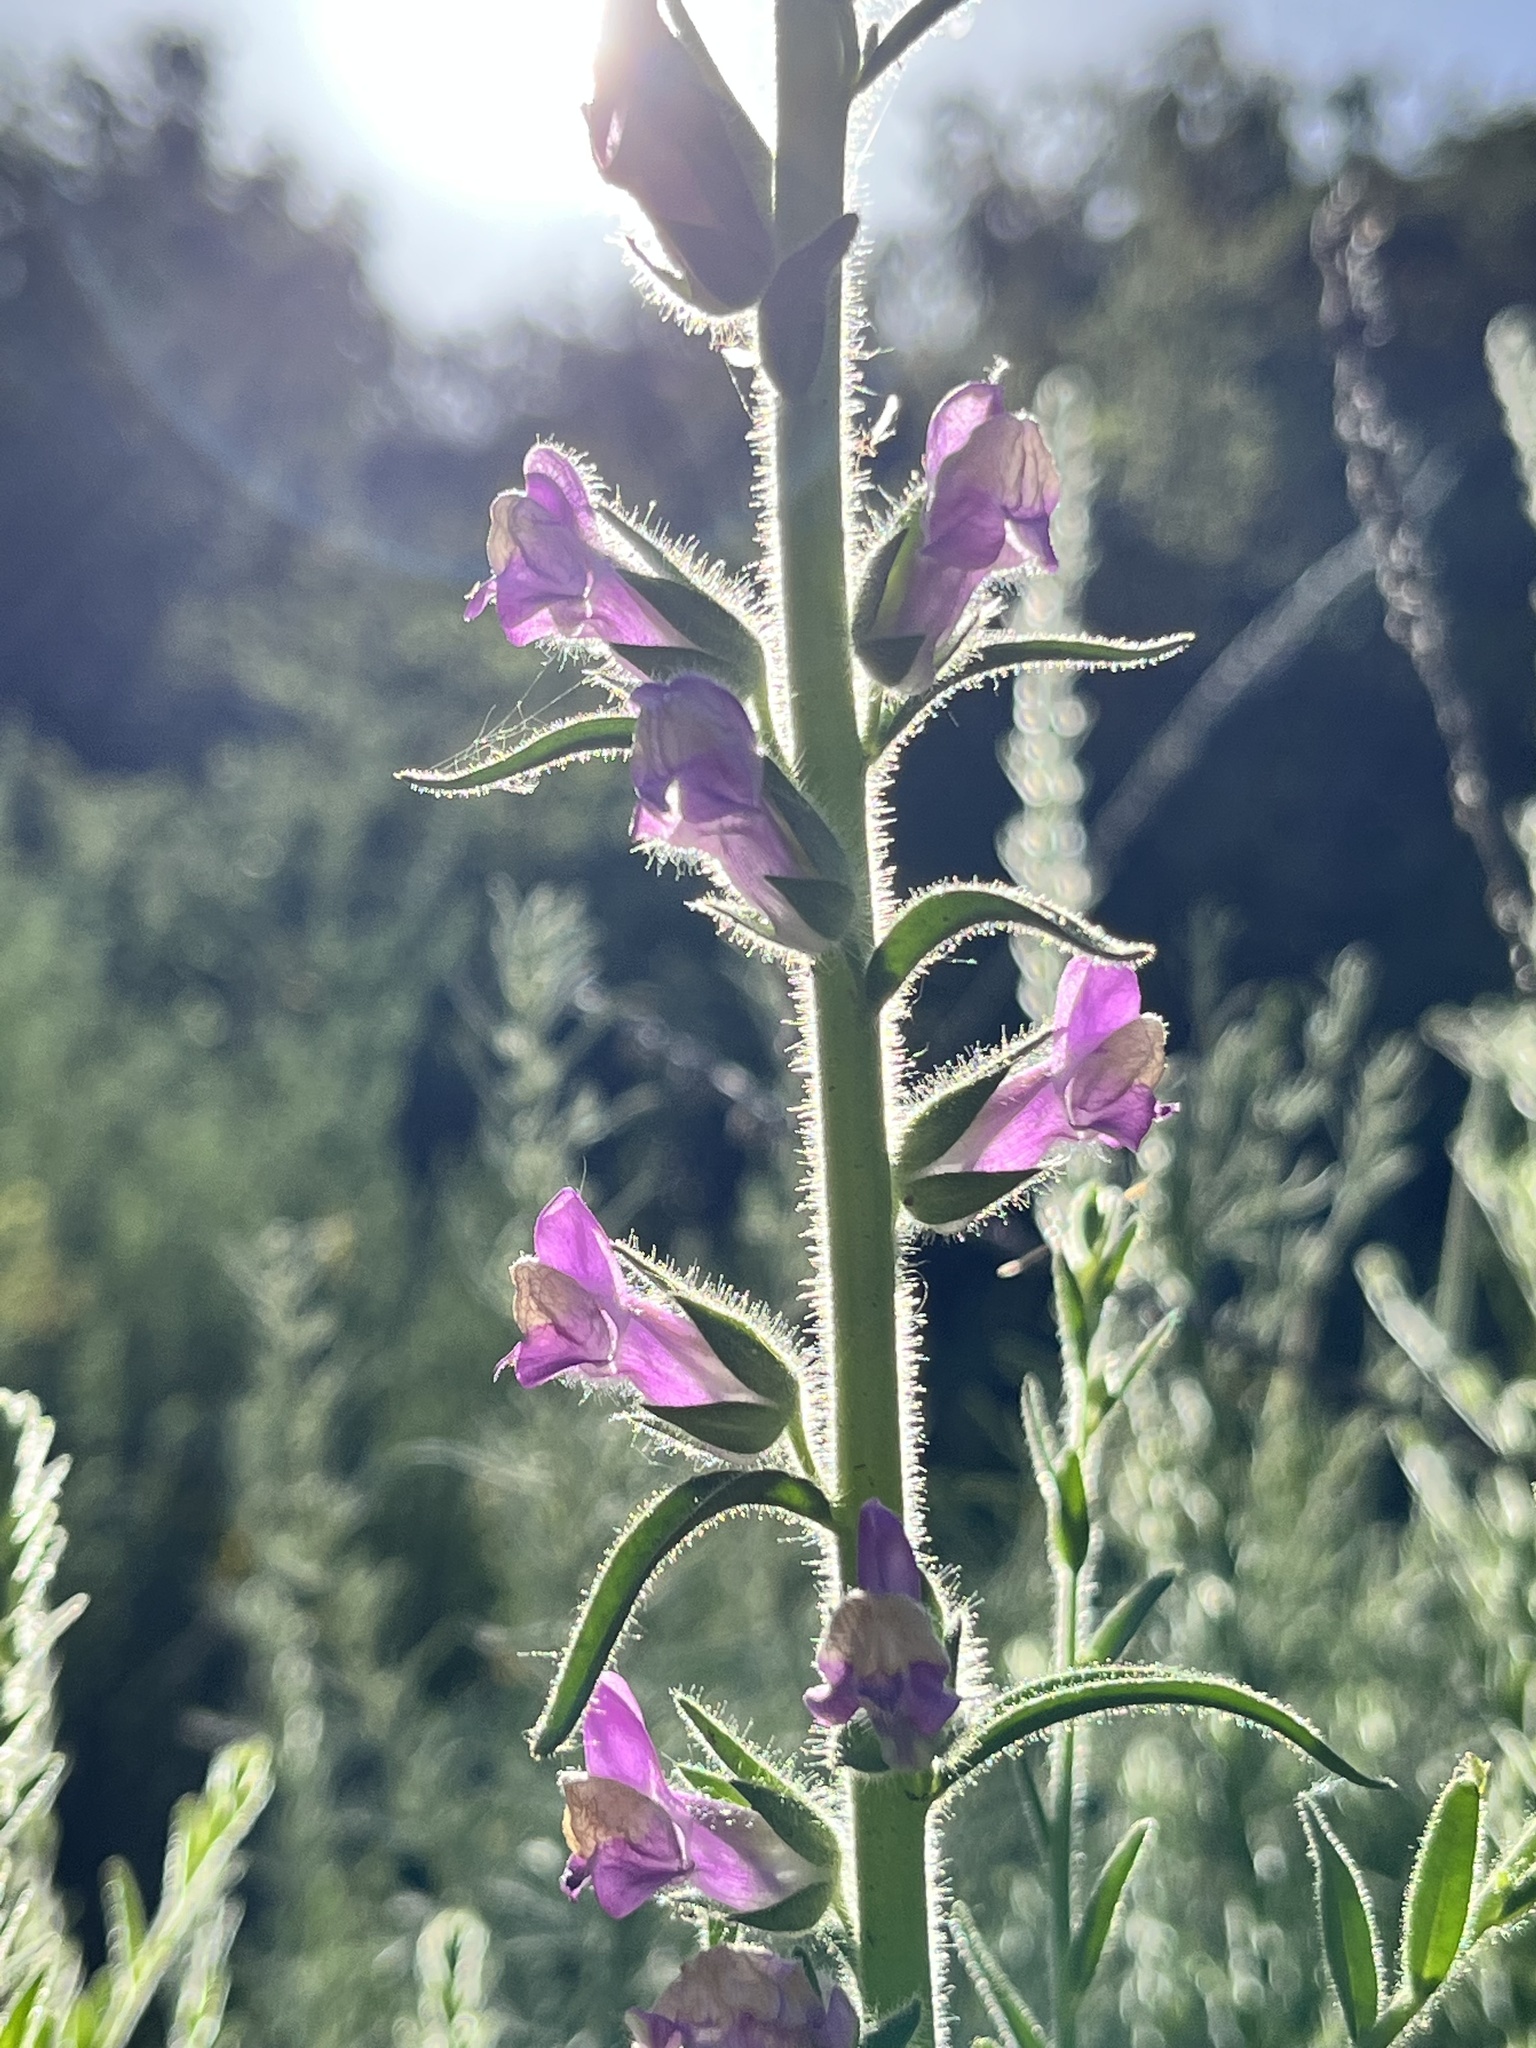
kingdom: Plantae
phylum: Tracheophyta
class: Magnoliopsida
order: Lamiales
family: Plantaginaceae
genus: Sairocarpus
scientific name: Sairocarpus multiflorus
